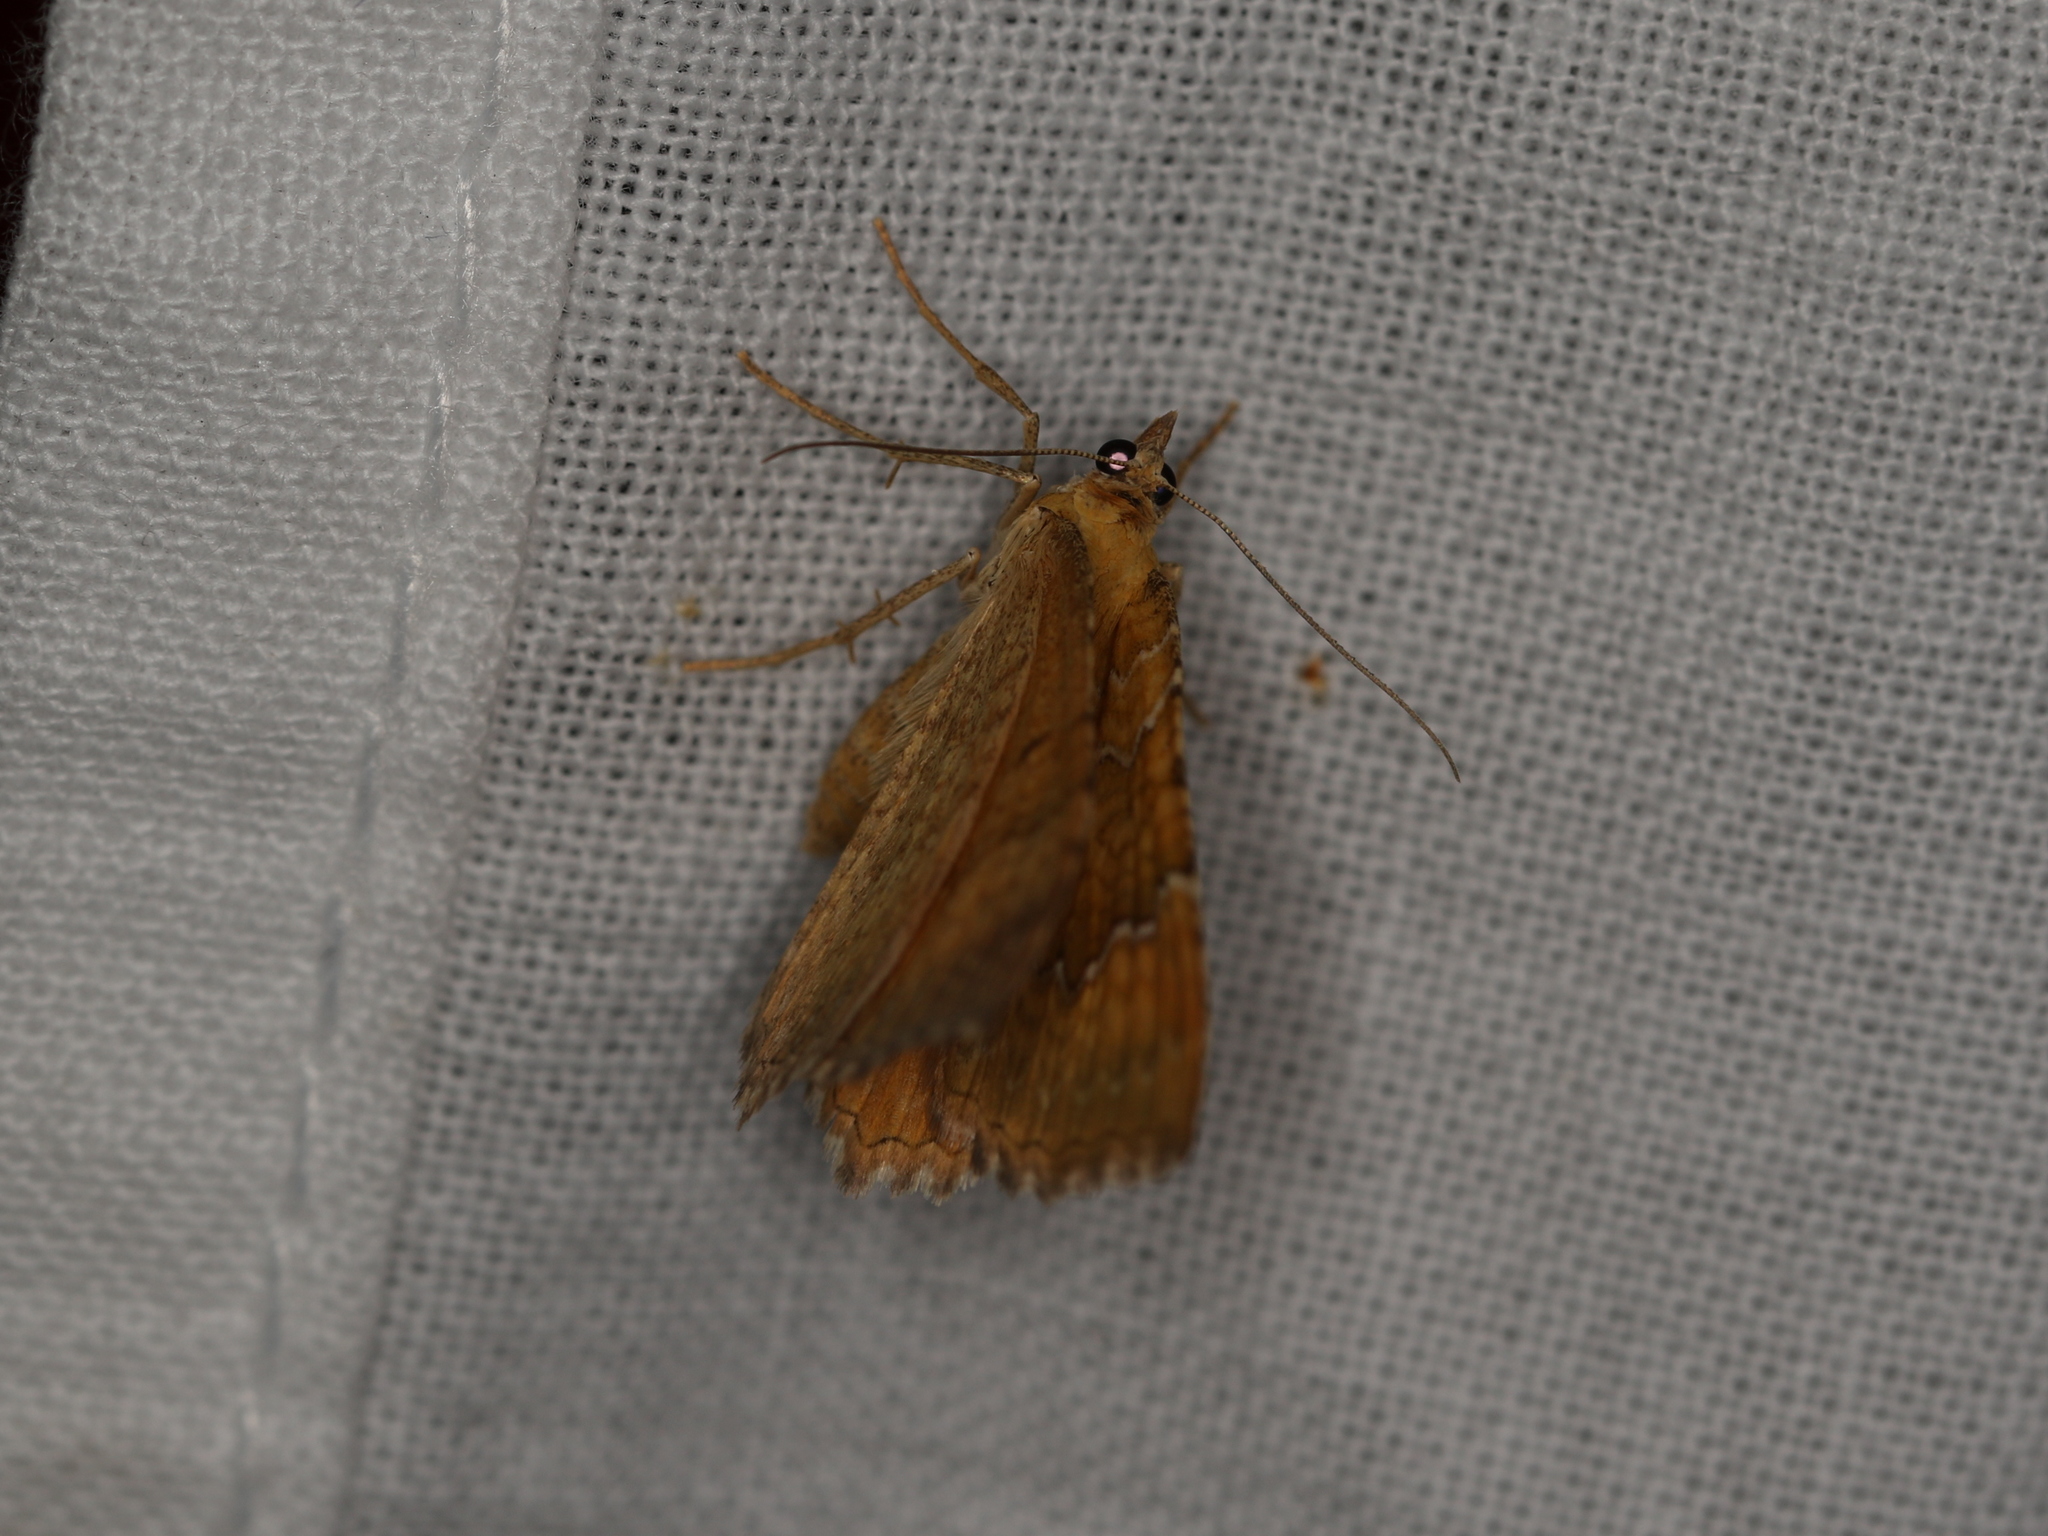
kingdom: Animalia
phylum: Arthropoda
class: Insecta
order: Lepidoptera
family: Geometridae
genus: Camptogramma
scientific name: Camptogramma bilineata
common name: Yellow shell
